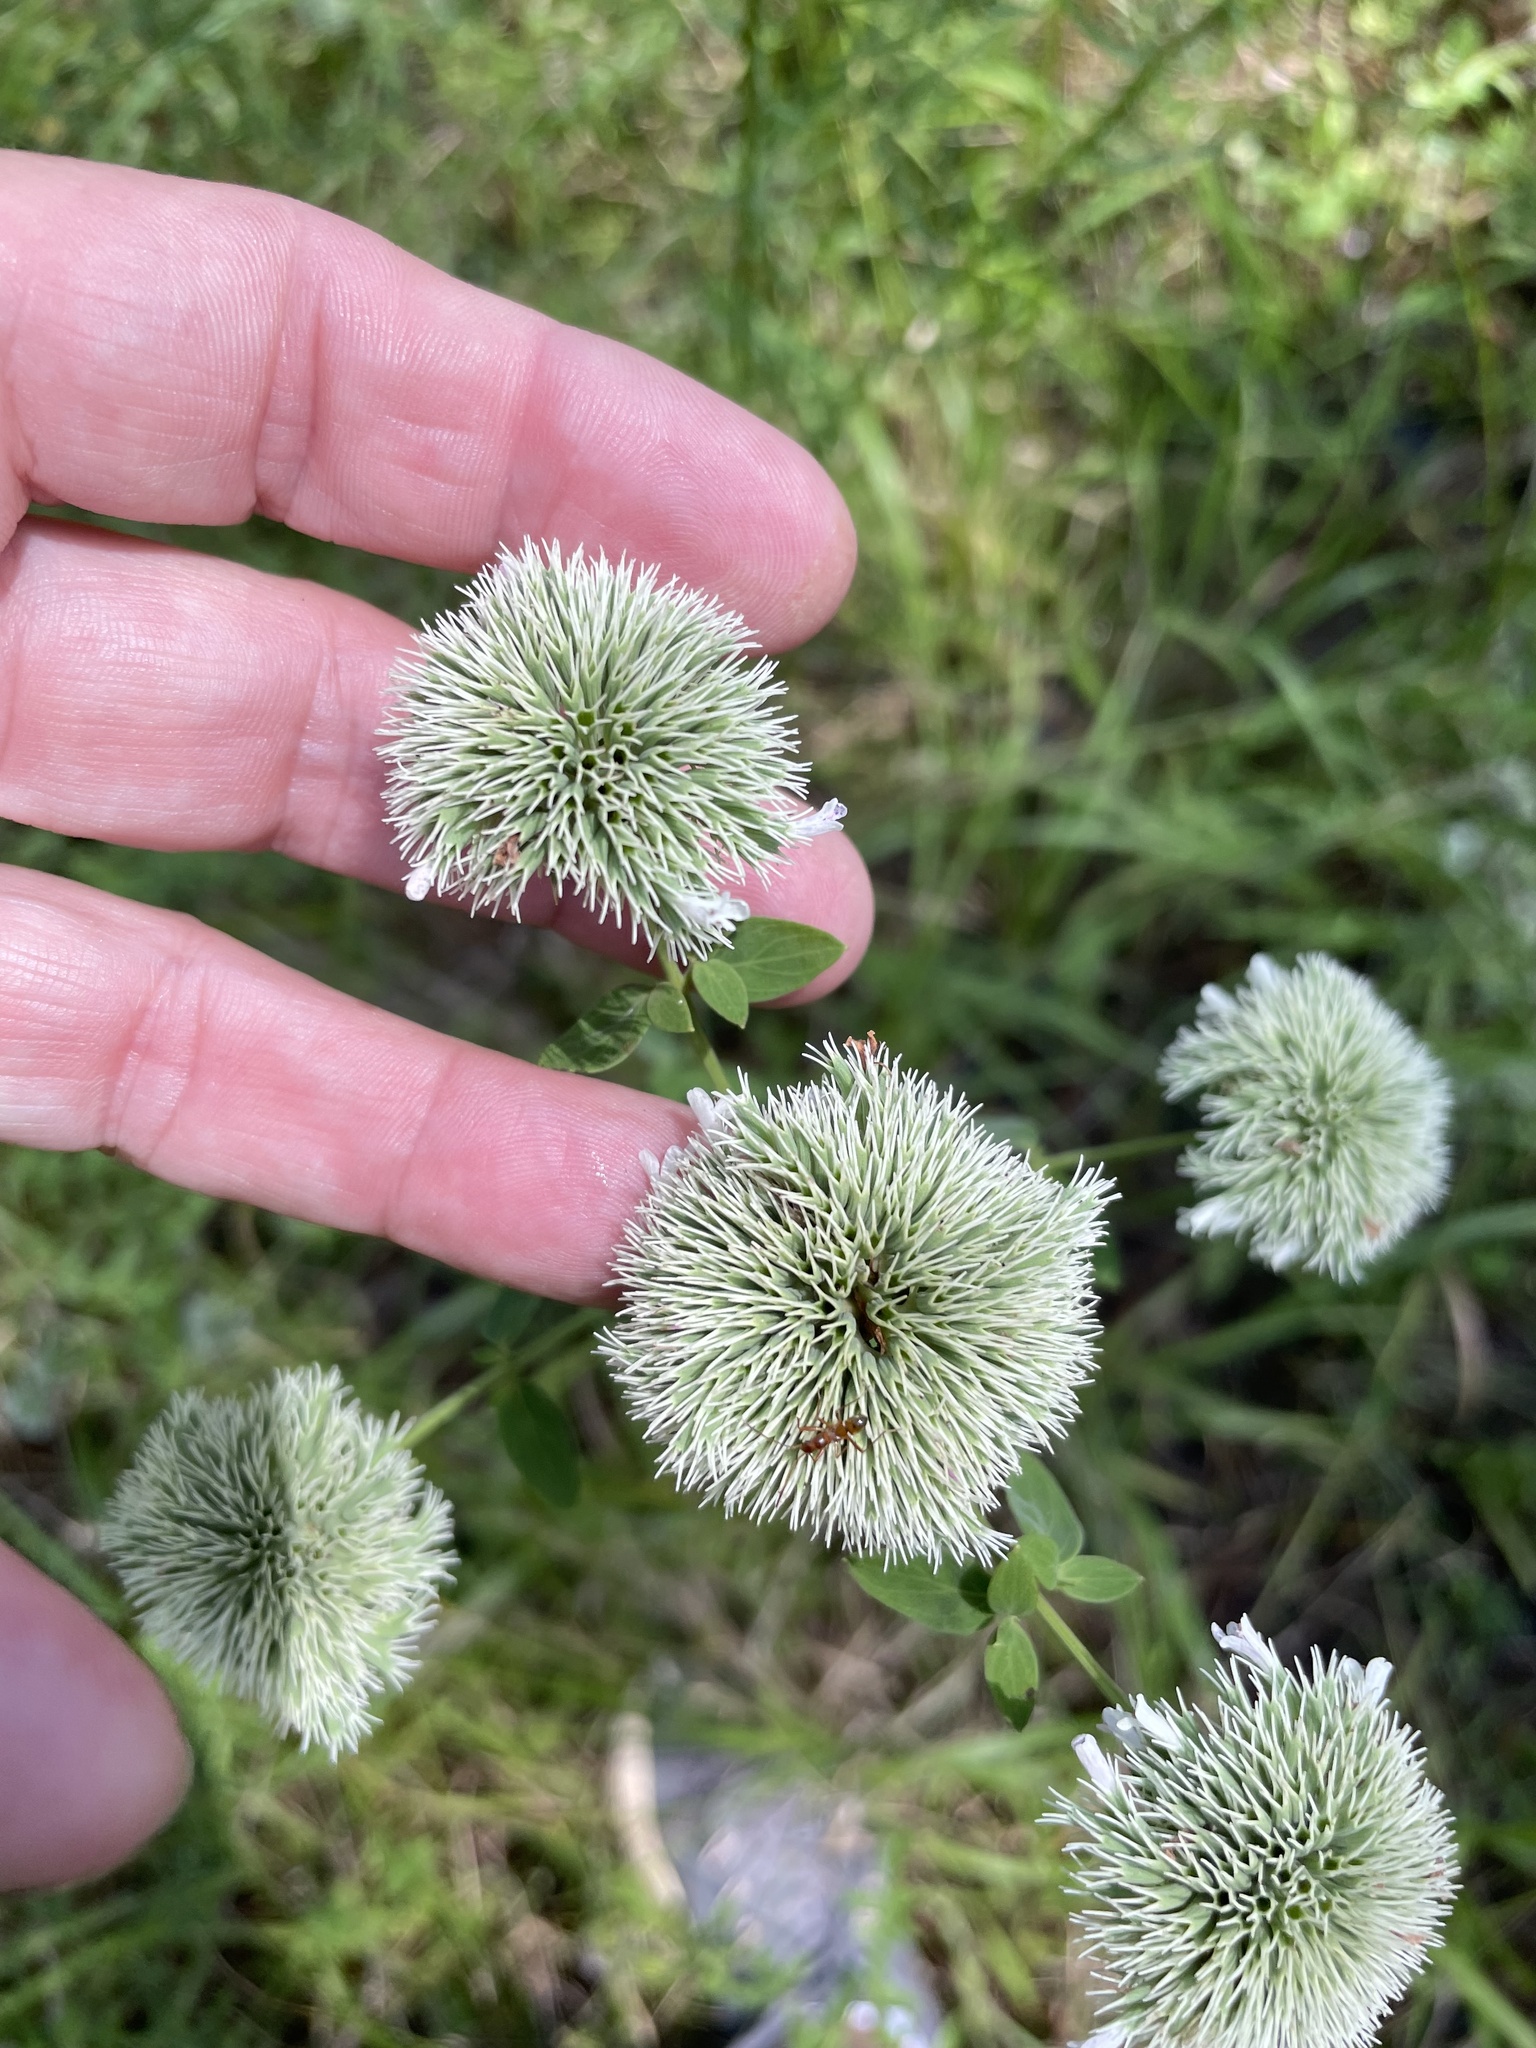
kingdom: Plantae
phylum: Tracheophyta
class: Magnoliopsida
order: Lamiales
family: Lamiaceae
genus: Pycnanthemum
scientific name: Pycnanthemum flexuosum
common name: Appalachian mountain-mint
